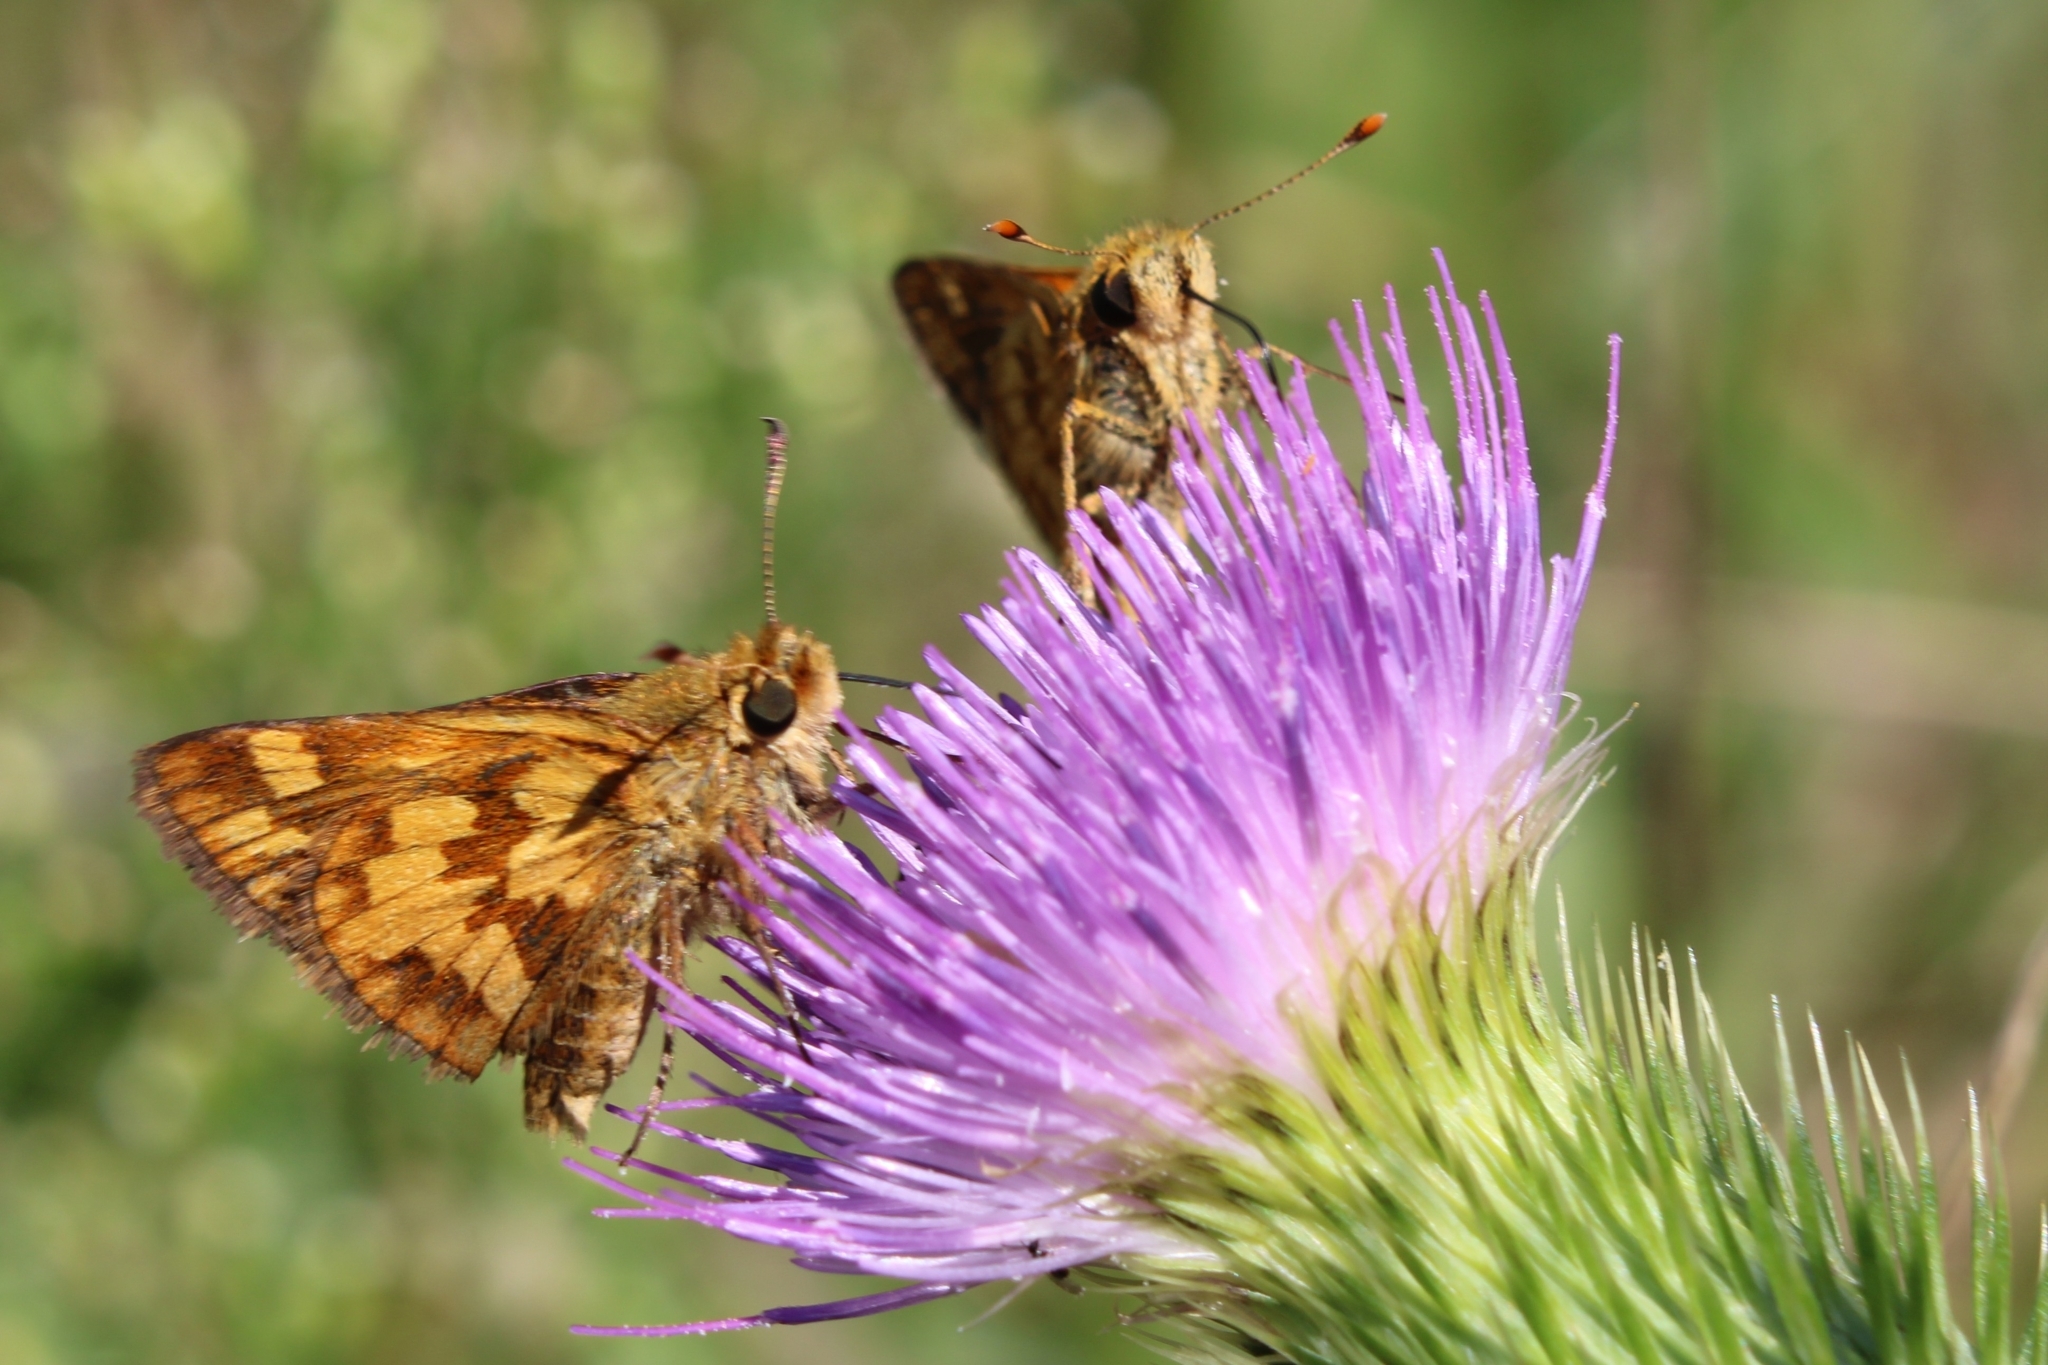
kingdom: Animalia
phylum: Arthropoda
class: Insecta
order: Lepidoptera
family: Hesperiidae
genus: Polites
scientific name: Polites coras
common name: Peck's skipper
